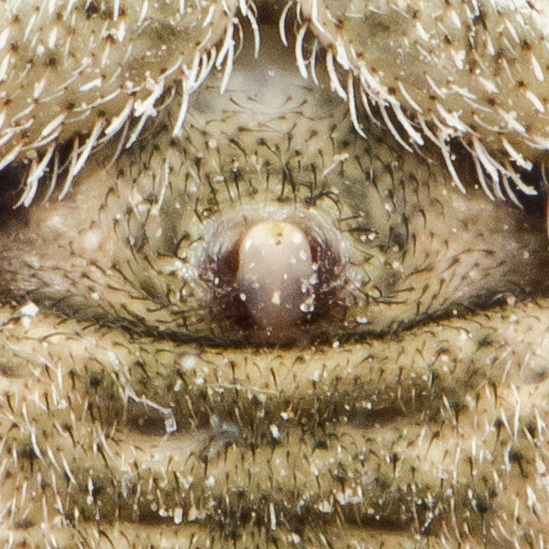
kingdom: Animalia
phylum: Arthropoda
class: Arachnida
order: Araneae
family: Thomisidae
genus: Ozyptila
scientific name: Ozyptila tuberosa
